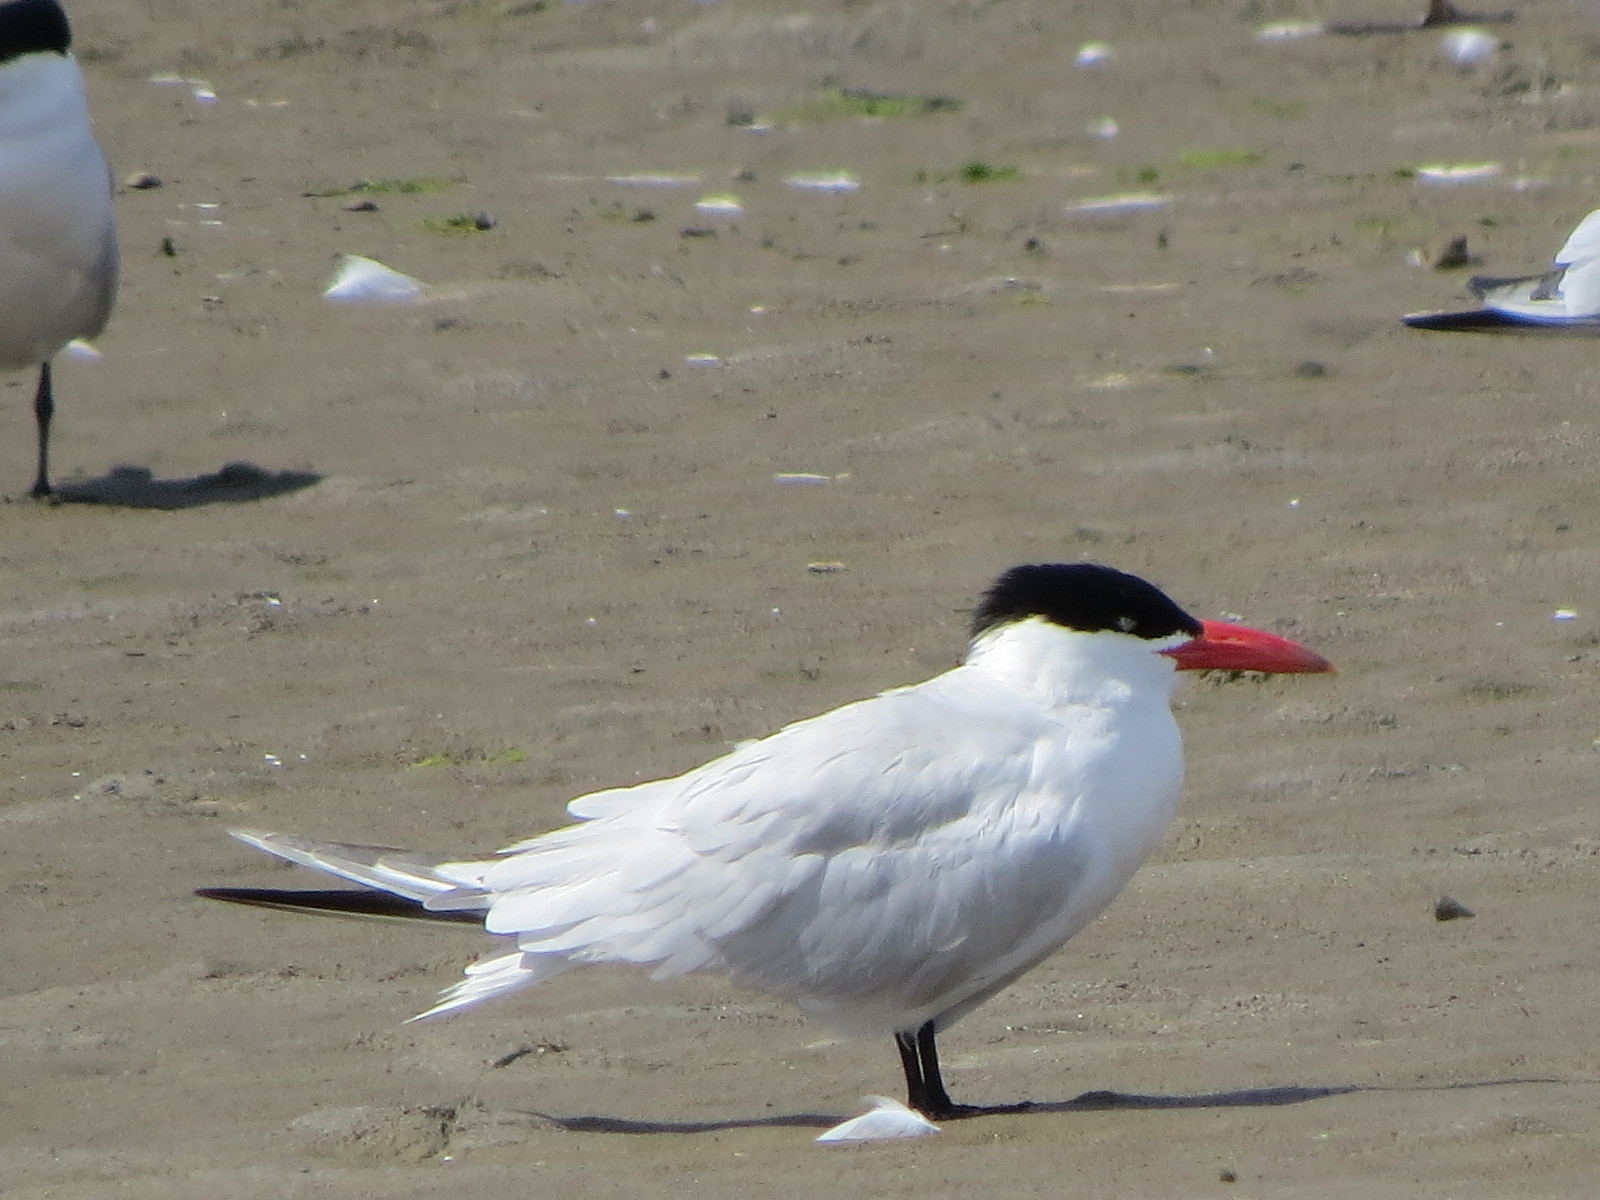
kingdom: Animalia
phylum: Chordata
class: Aves
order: Charadriiformes
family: Laridae
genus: Hydroprogne
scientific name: Hydroprogne caspia
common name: Caspian tern
